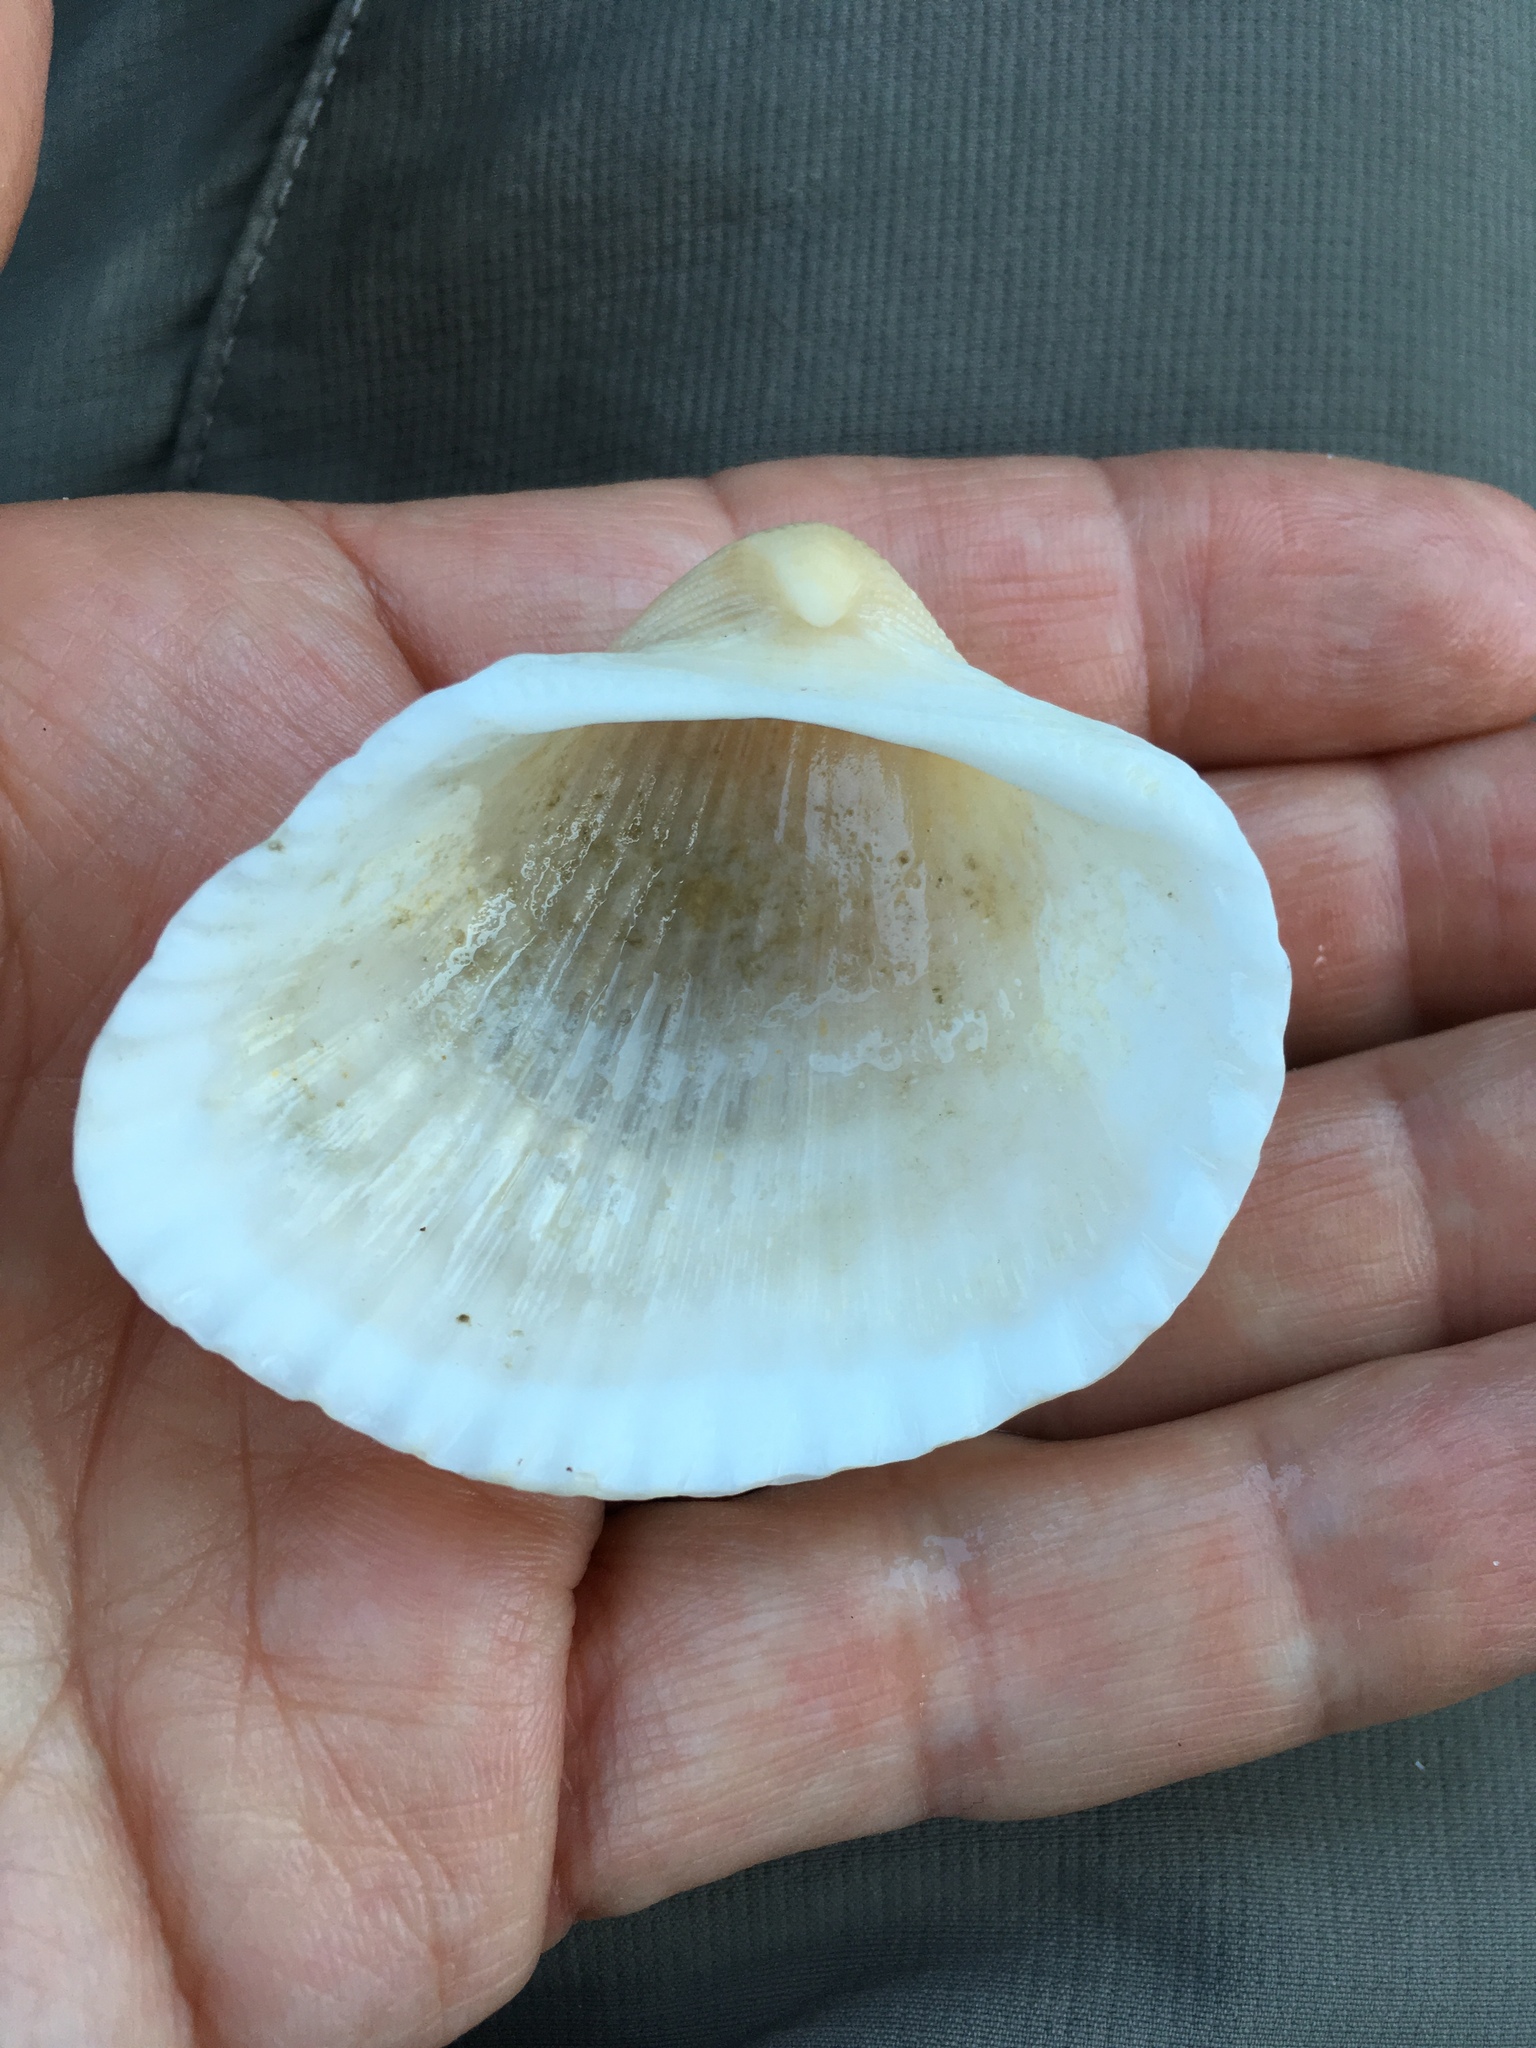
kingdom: Animalia
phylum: Mollusca
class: Bivalvia
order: Arcida
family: Arcidae
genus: Anadara
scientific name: Anadara brasiliana
